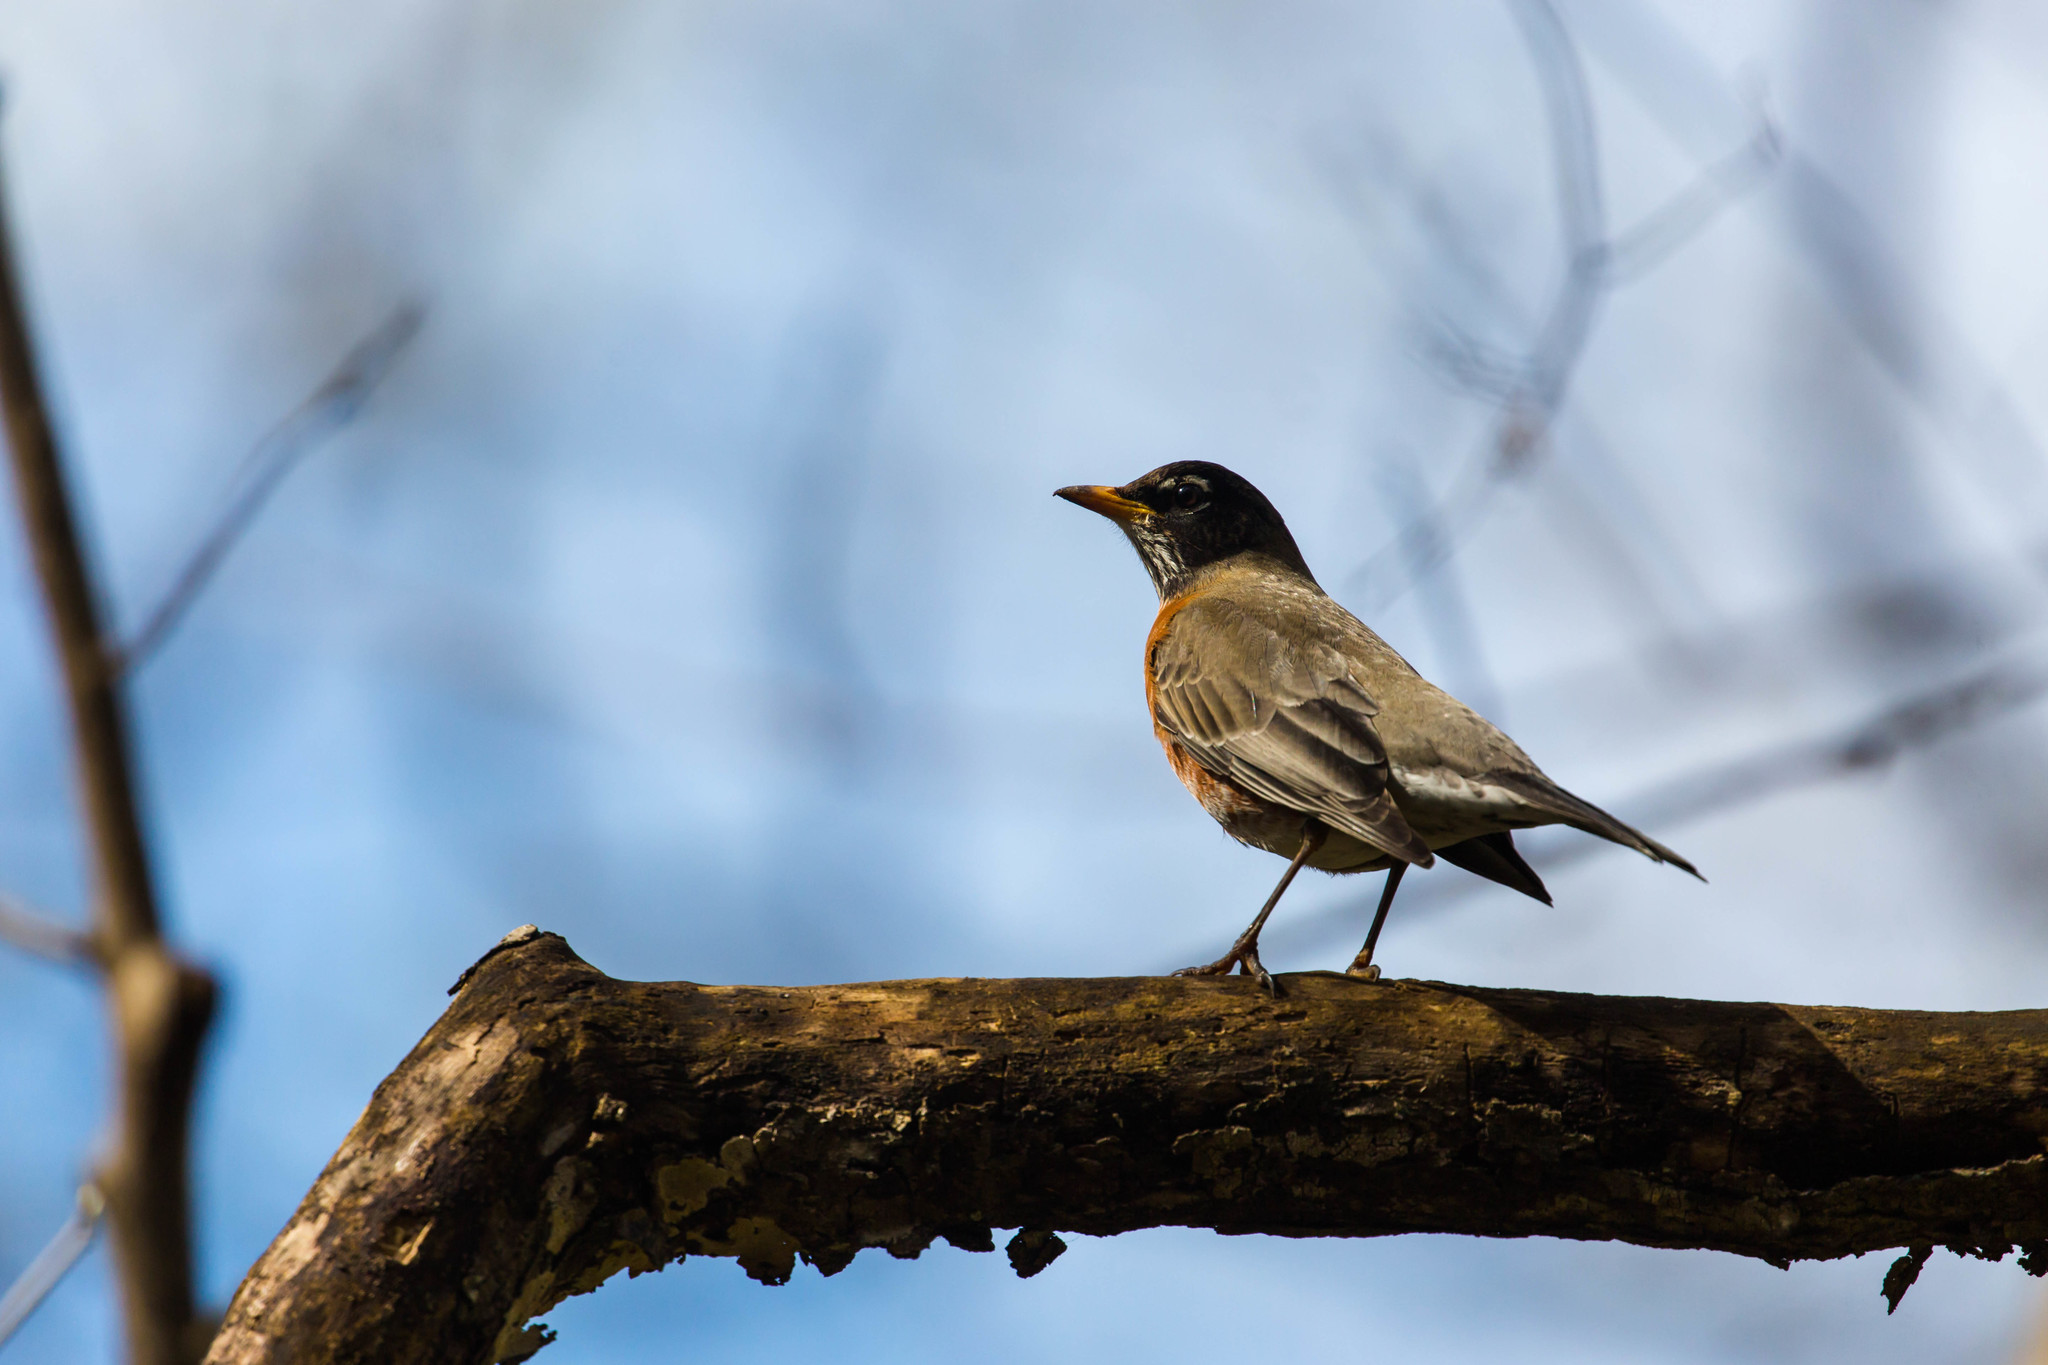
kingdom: Animalia
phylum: Chordata
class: Aves
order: Passeriformes
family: Turdidae
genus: Turdus
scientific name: Turdus migratorius
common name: American robin
